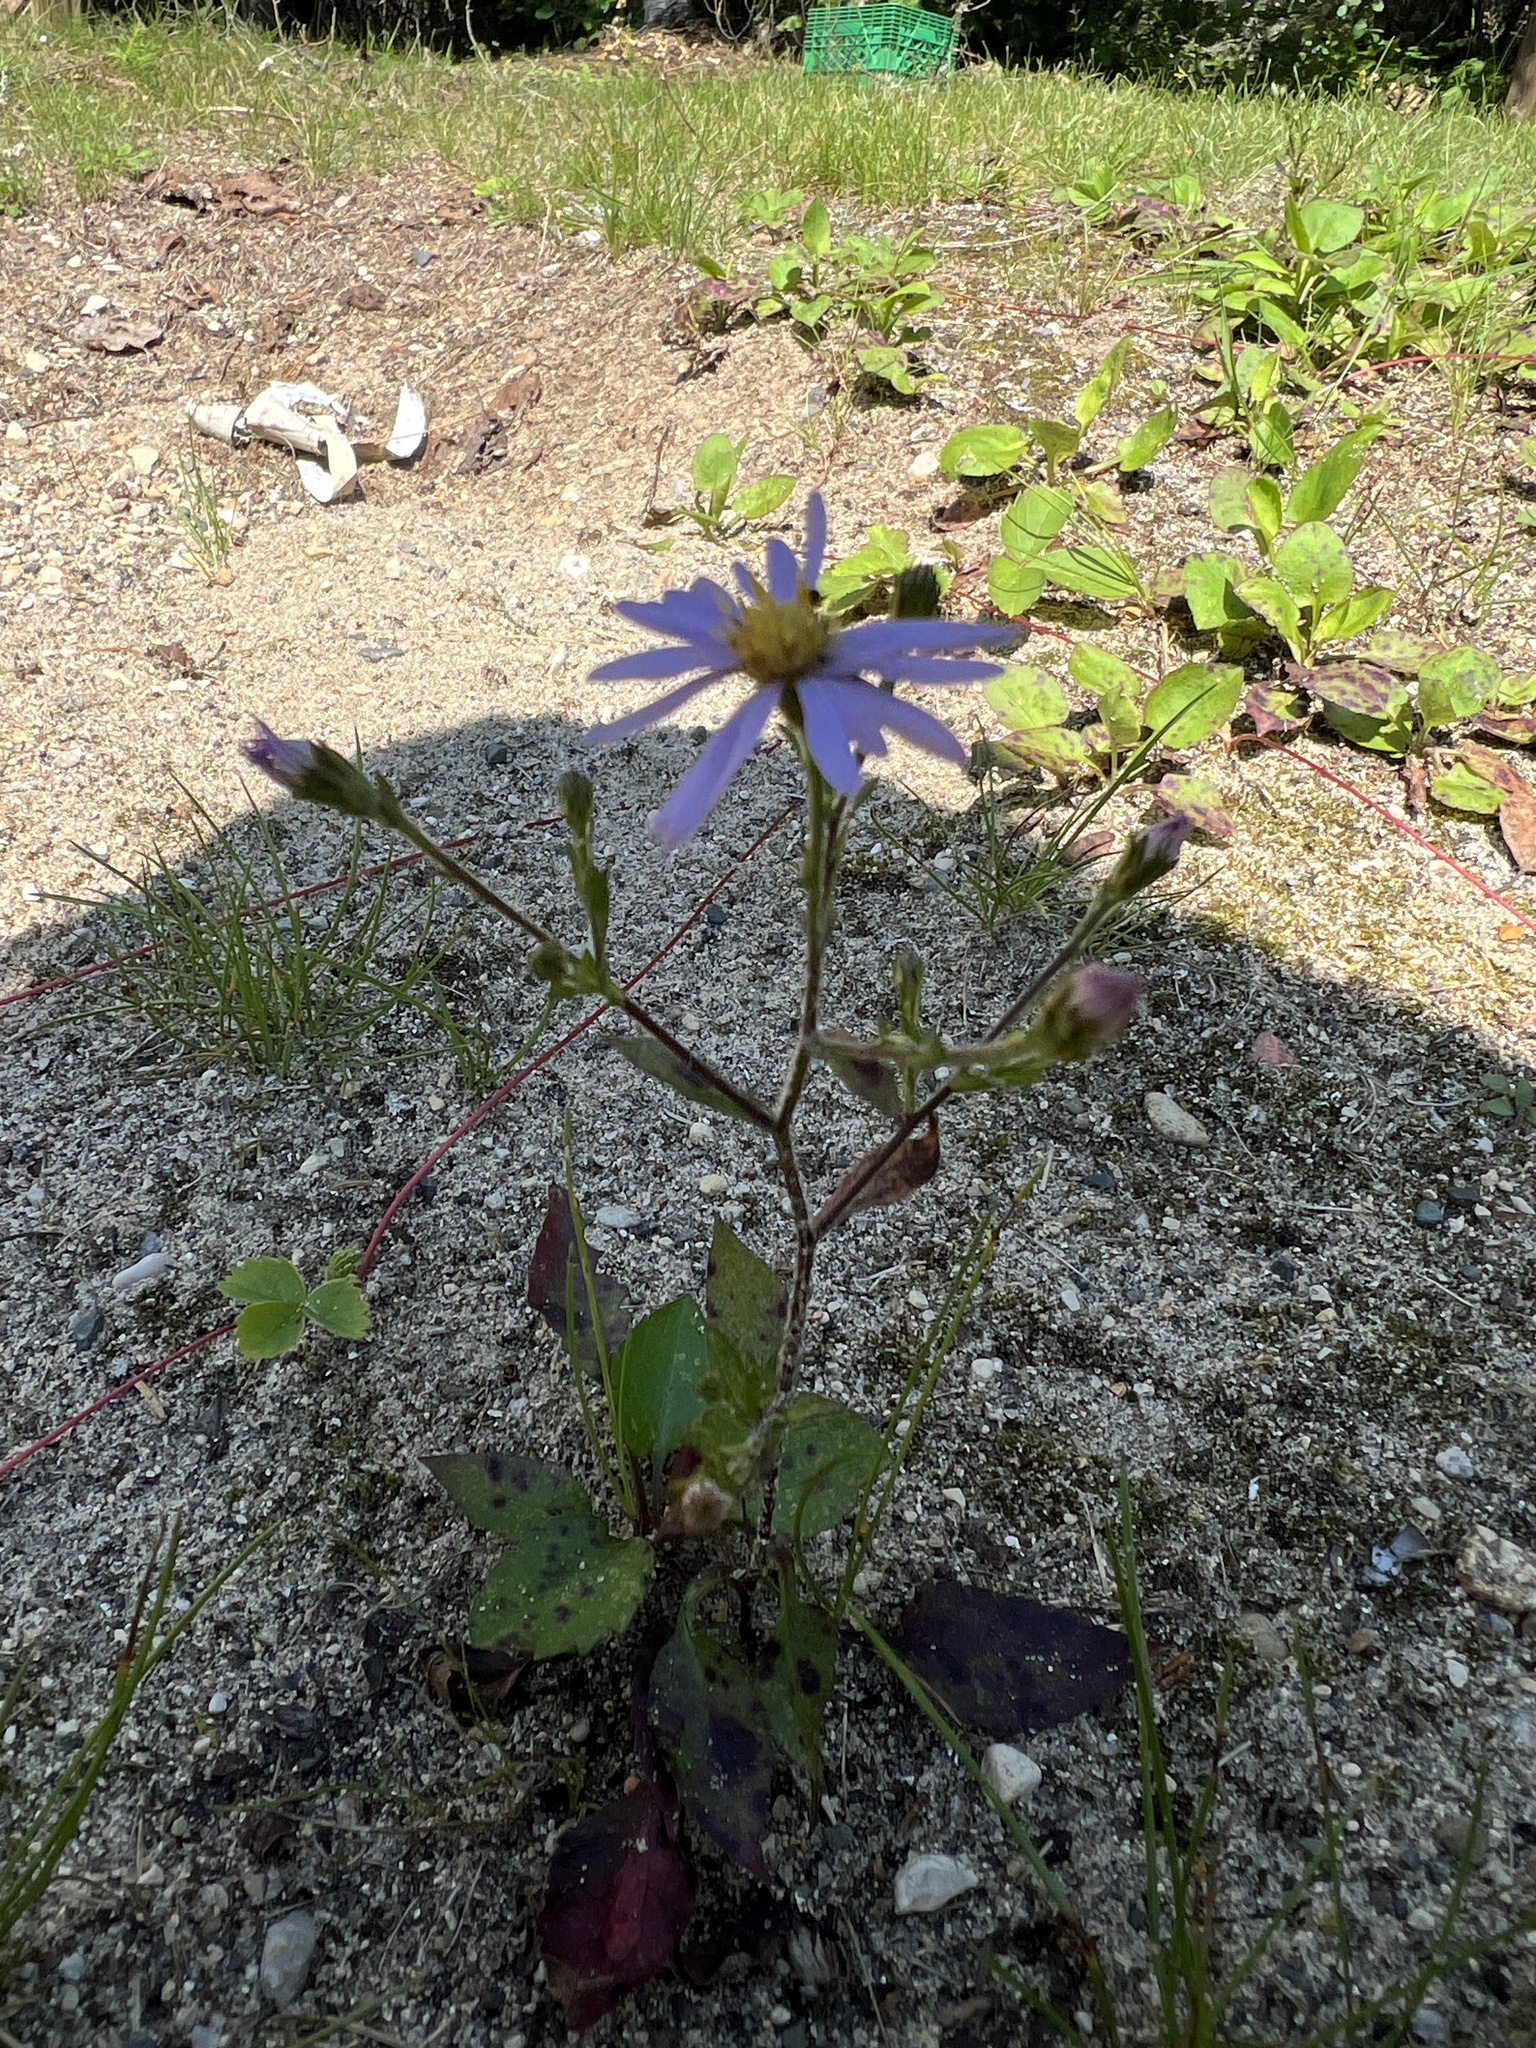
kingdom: Plantae
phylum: Tracheophyta
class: Magnoliopsida
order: Asterales
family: Asteraceae
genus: Symphyotrichum
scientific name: Symphyotrichum ciliolatum
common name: Fringed blue aster
